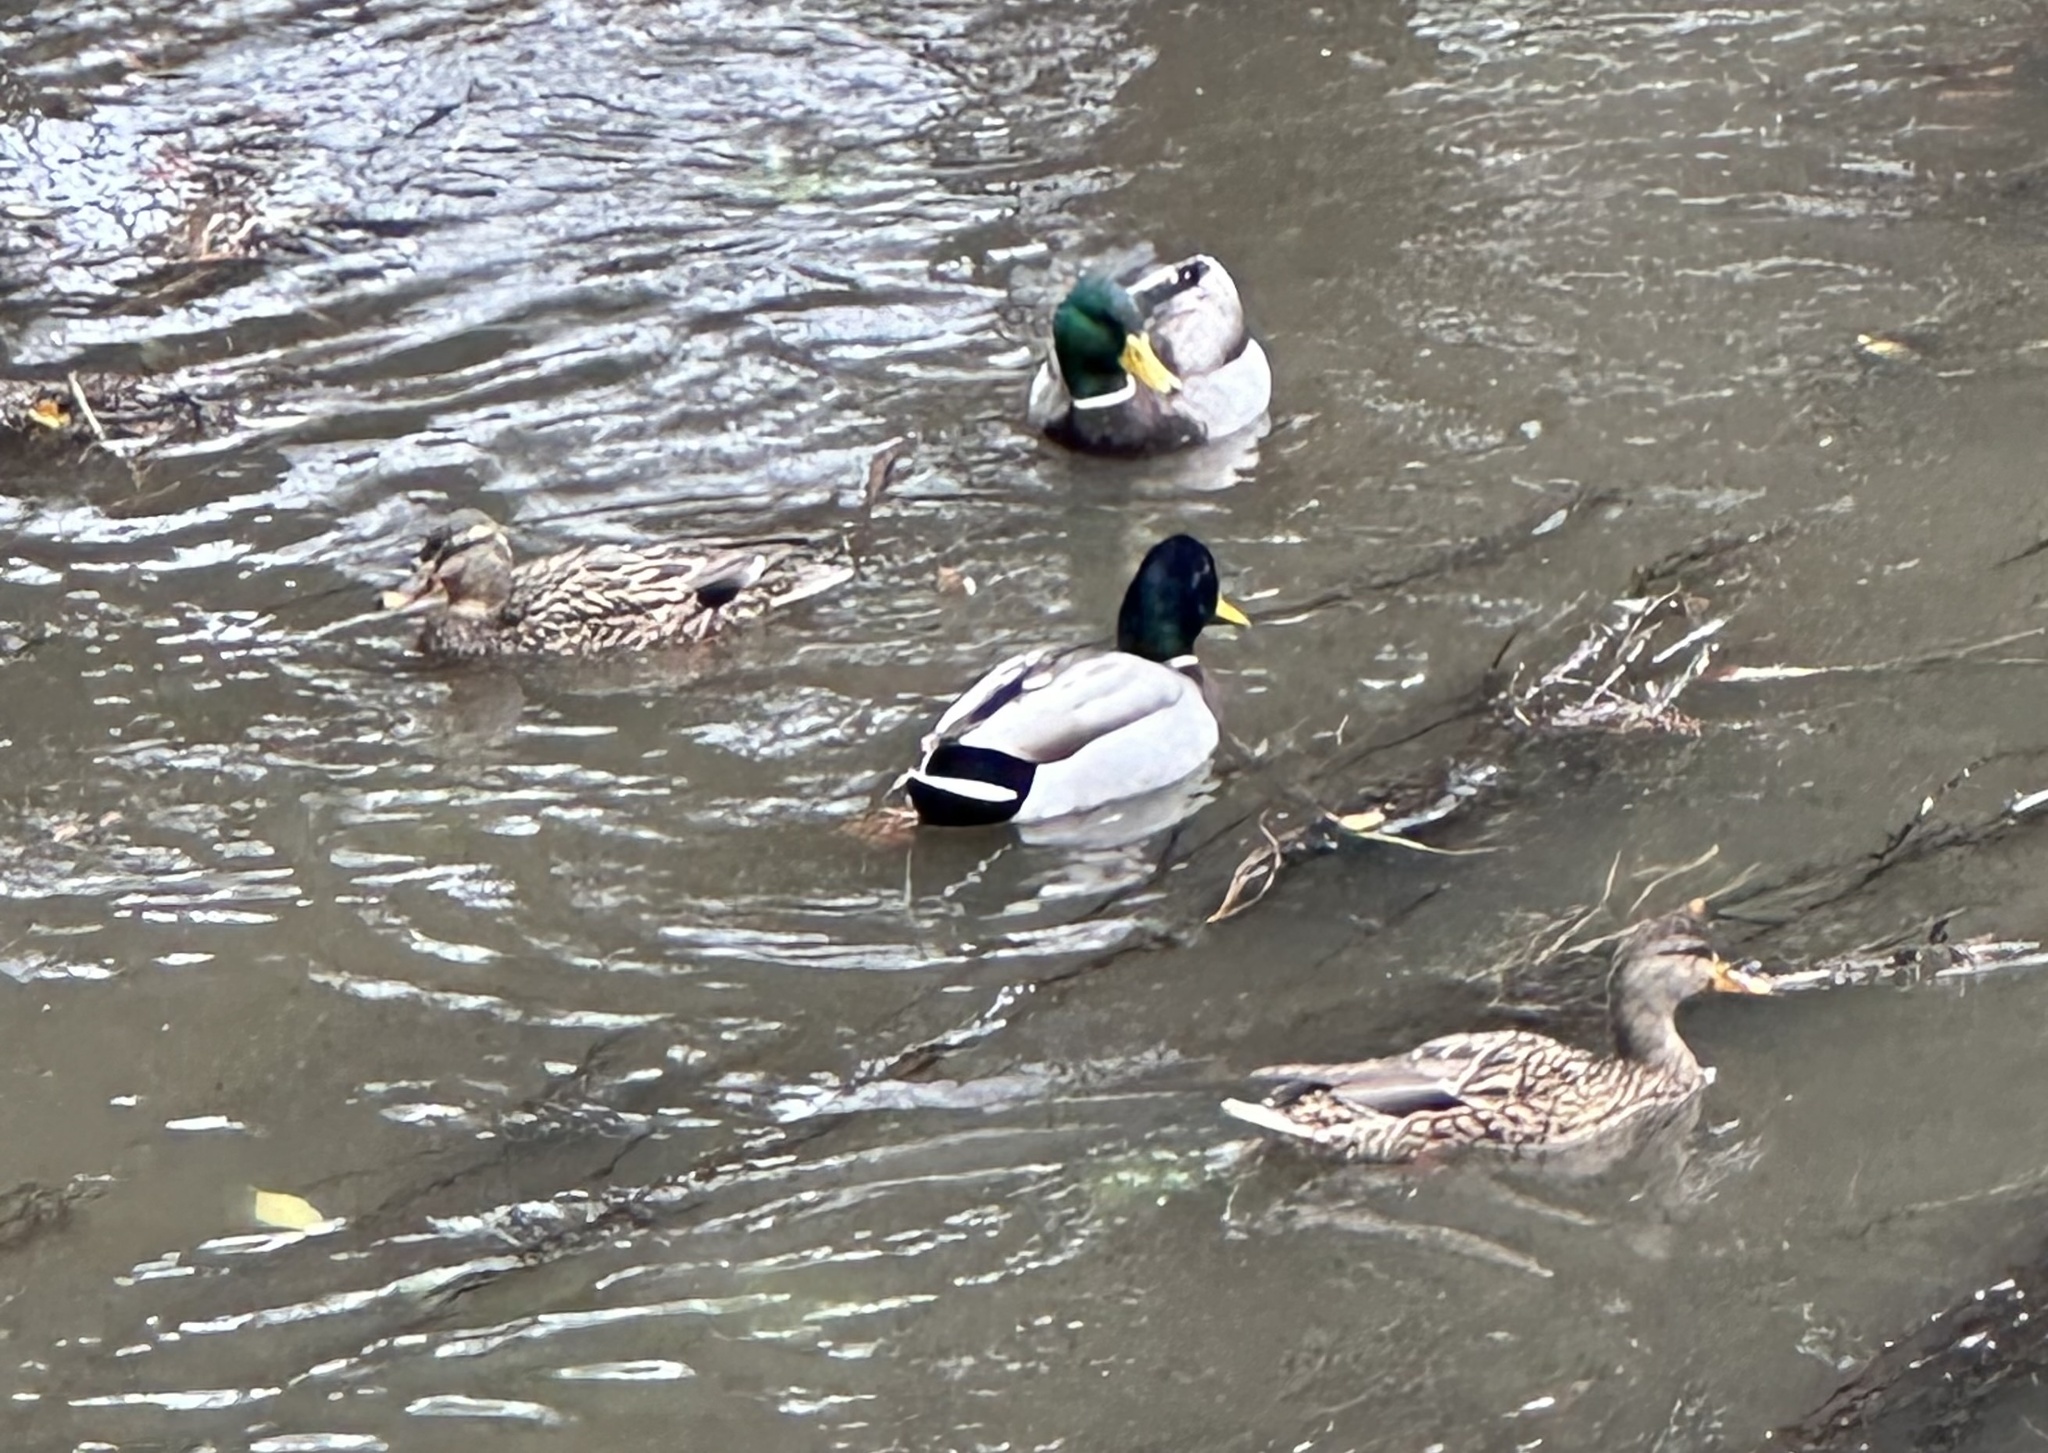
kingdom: Animalia
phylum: Chordata
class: Aves
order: Anseriformes
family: Anatidae
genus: Anas
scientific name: Anas platyrhynchos
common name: Mallard
